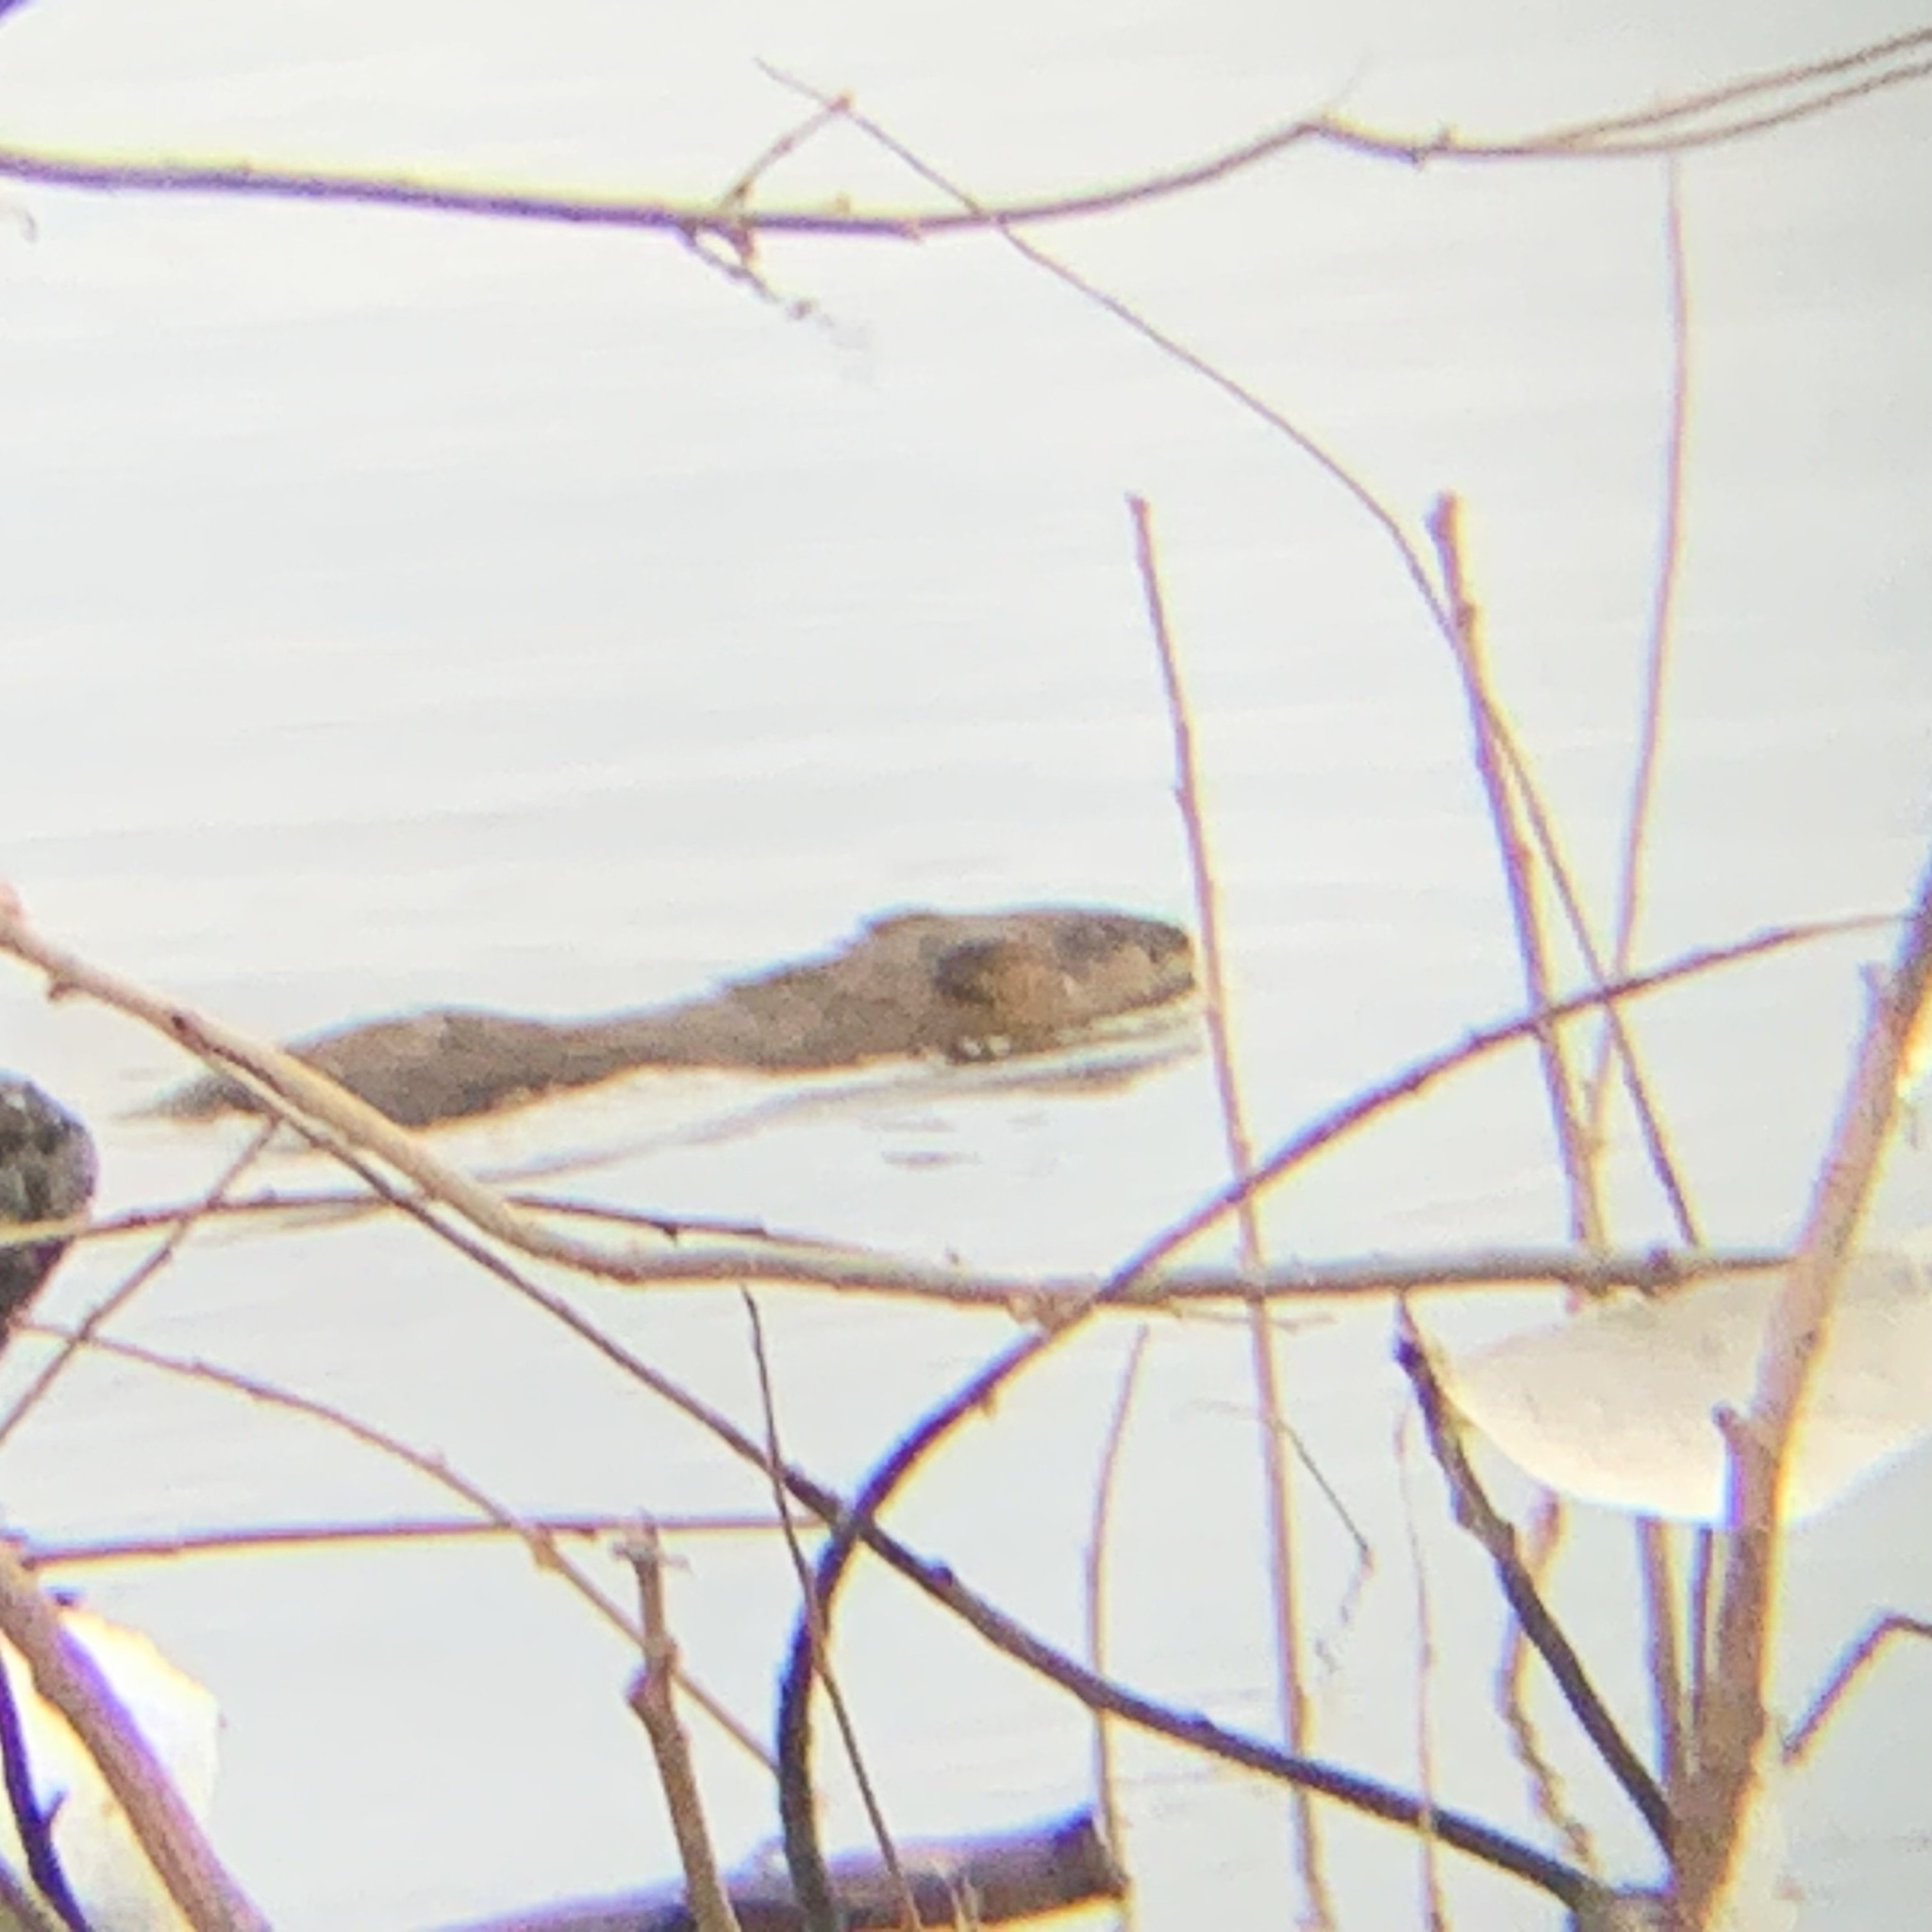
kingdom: Animalia
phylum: Chordata
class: Mammalia
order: Rodentia
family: Cricetidae
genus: Ondatra
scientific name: Ondatra zibethicus
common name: Muskrat
